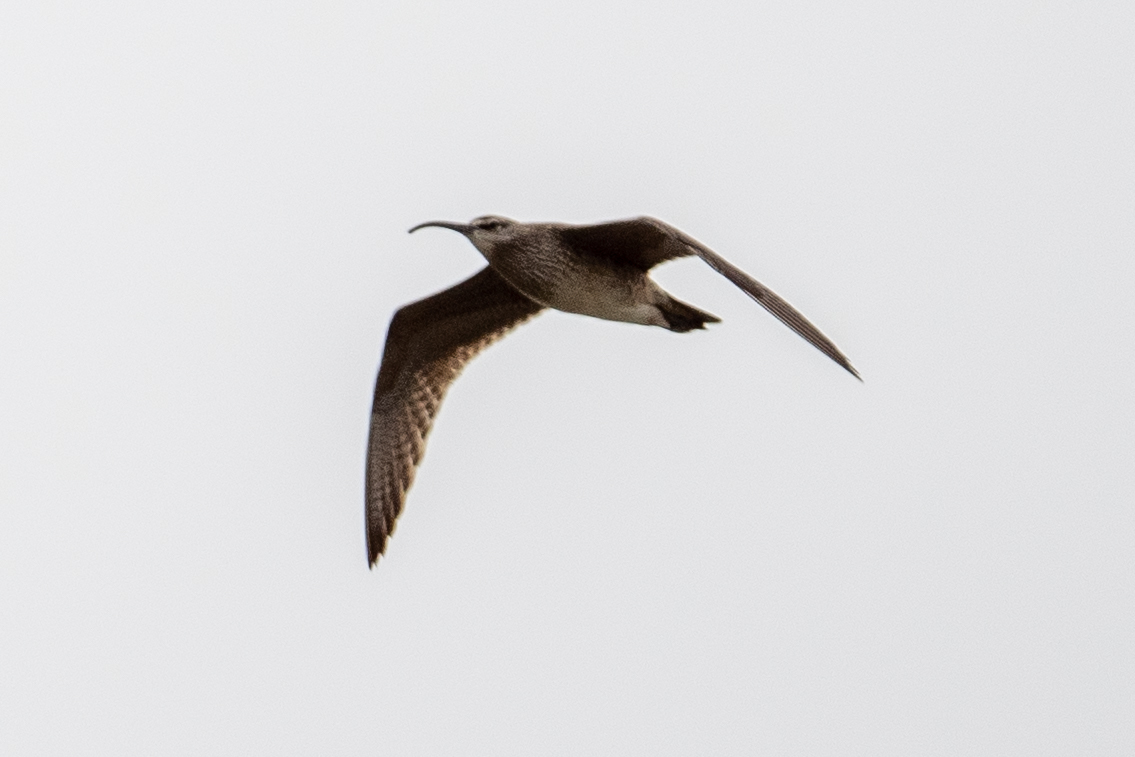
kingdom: Animalia
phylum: Chordata
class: Aves
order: Charadriiformes
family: Scolopacidae
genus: Numenius
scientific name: Numenius phaeopus
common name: Whimbrel
